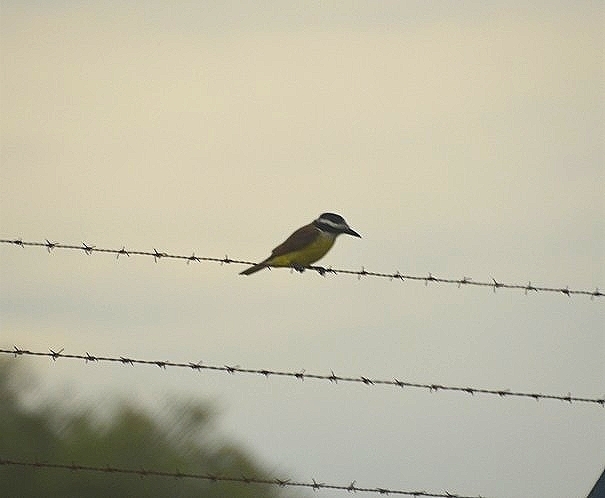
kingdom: Animalia
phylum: Chordata
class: Aves
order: Passeriformes
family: Tyrannidae
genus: Pitangus
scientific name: Pitangus sulphuratus
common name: Great kiskadee
